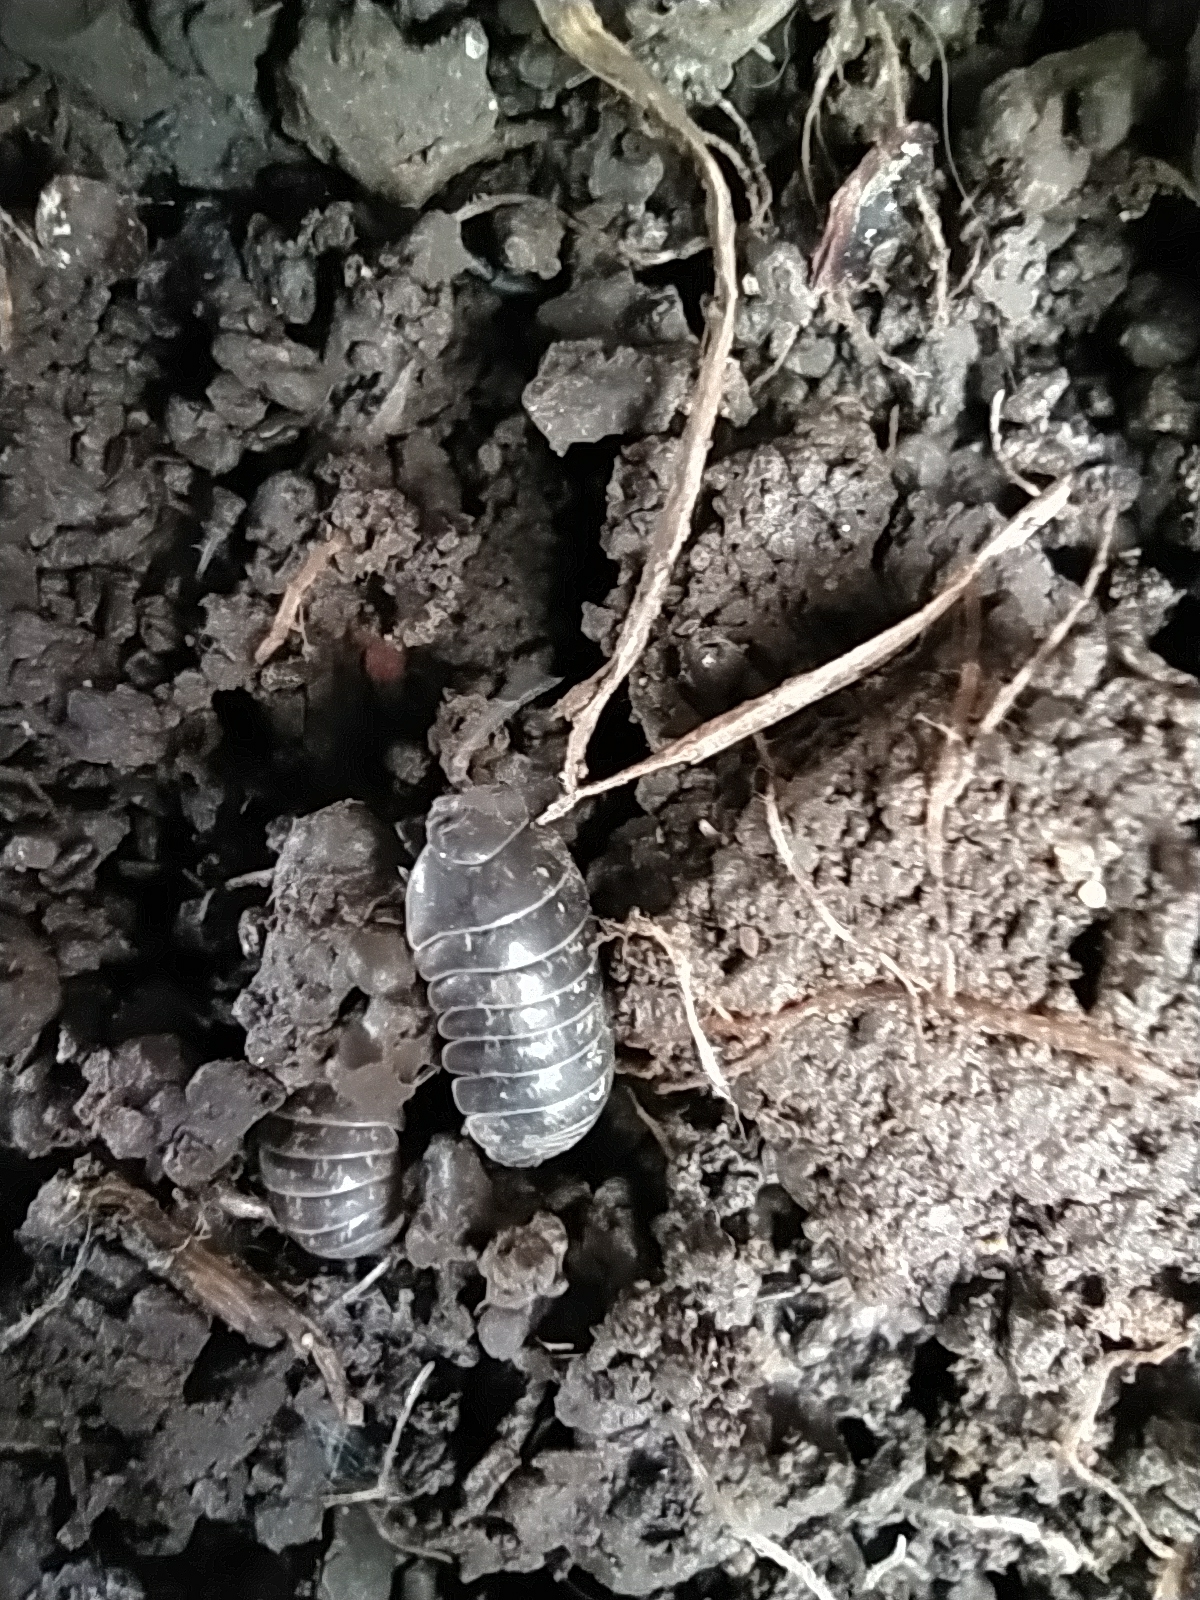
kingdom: Animalia
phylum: Arthropoda
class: Malacostraca
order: Isopoda
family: Armadillidiidae
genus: Armadillidium
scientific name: Armadillidium vulgare
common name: Common pill woodlouse
